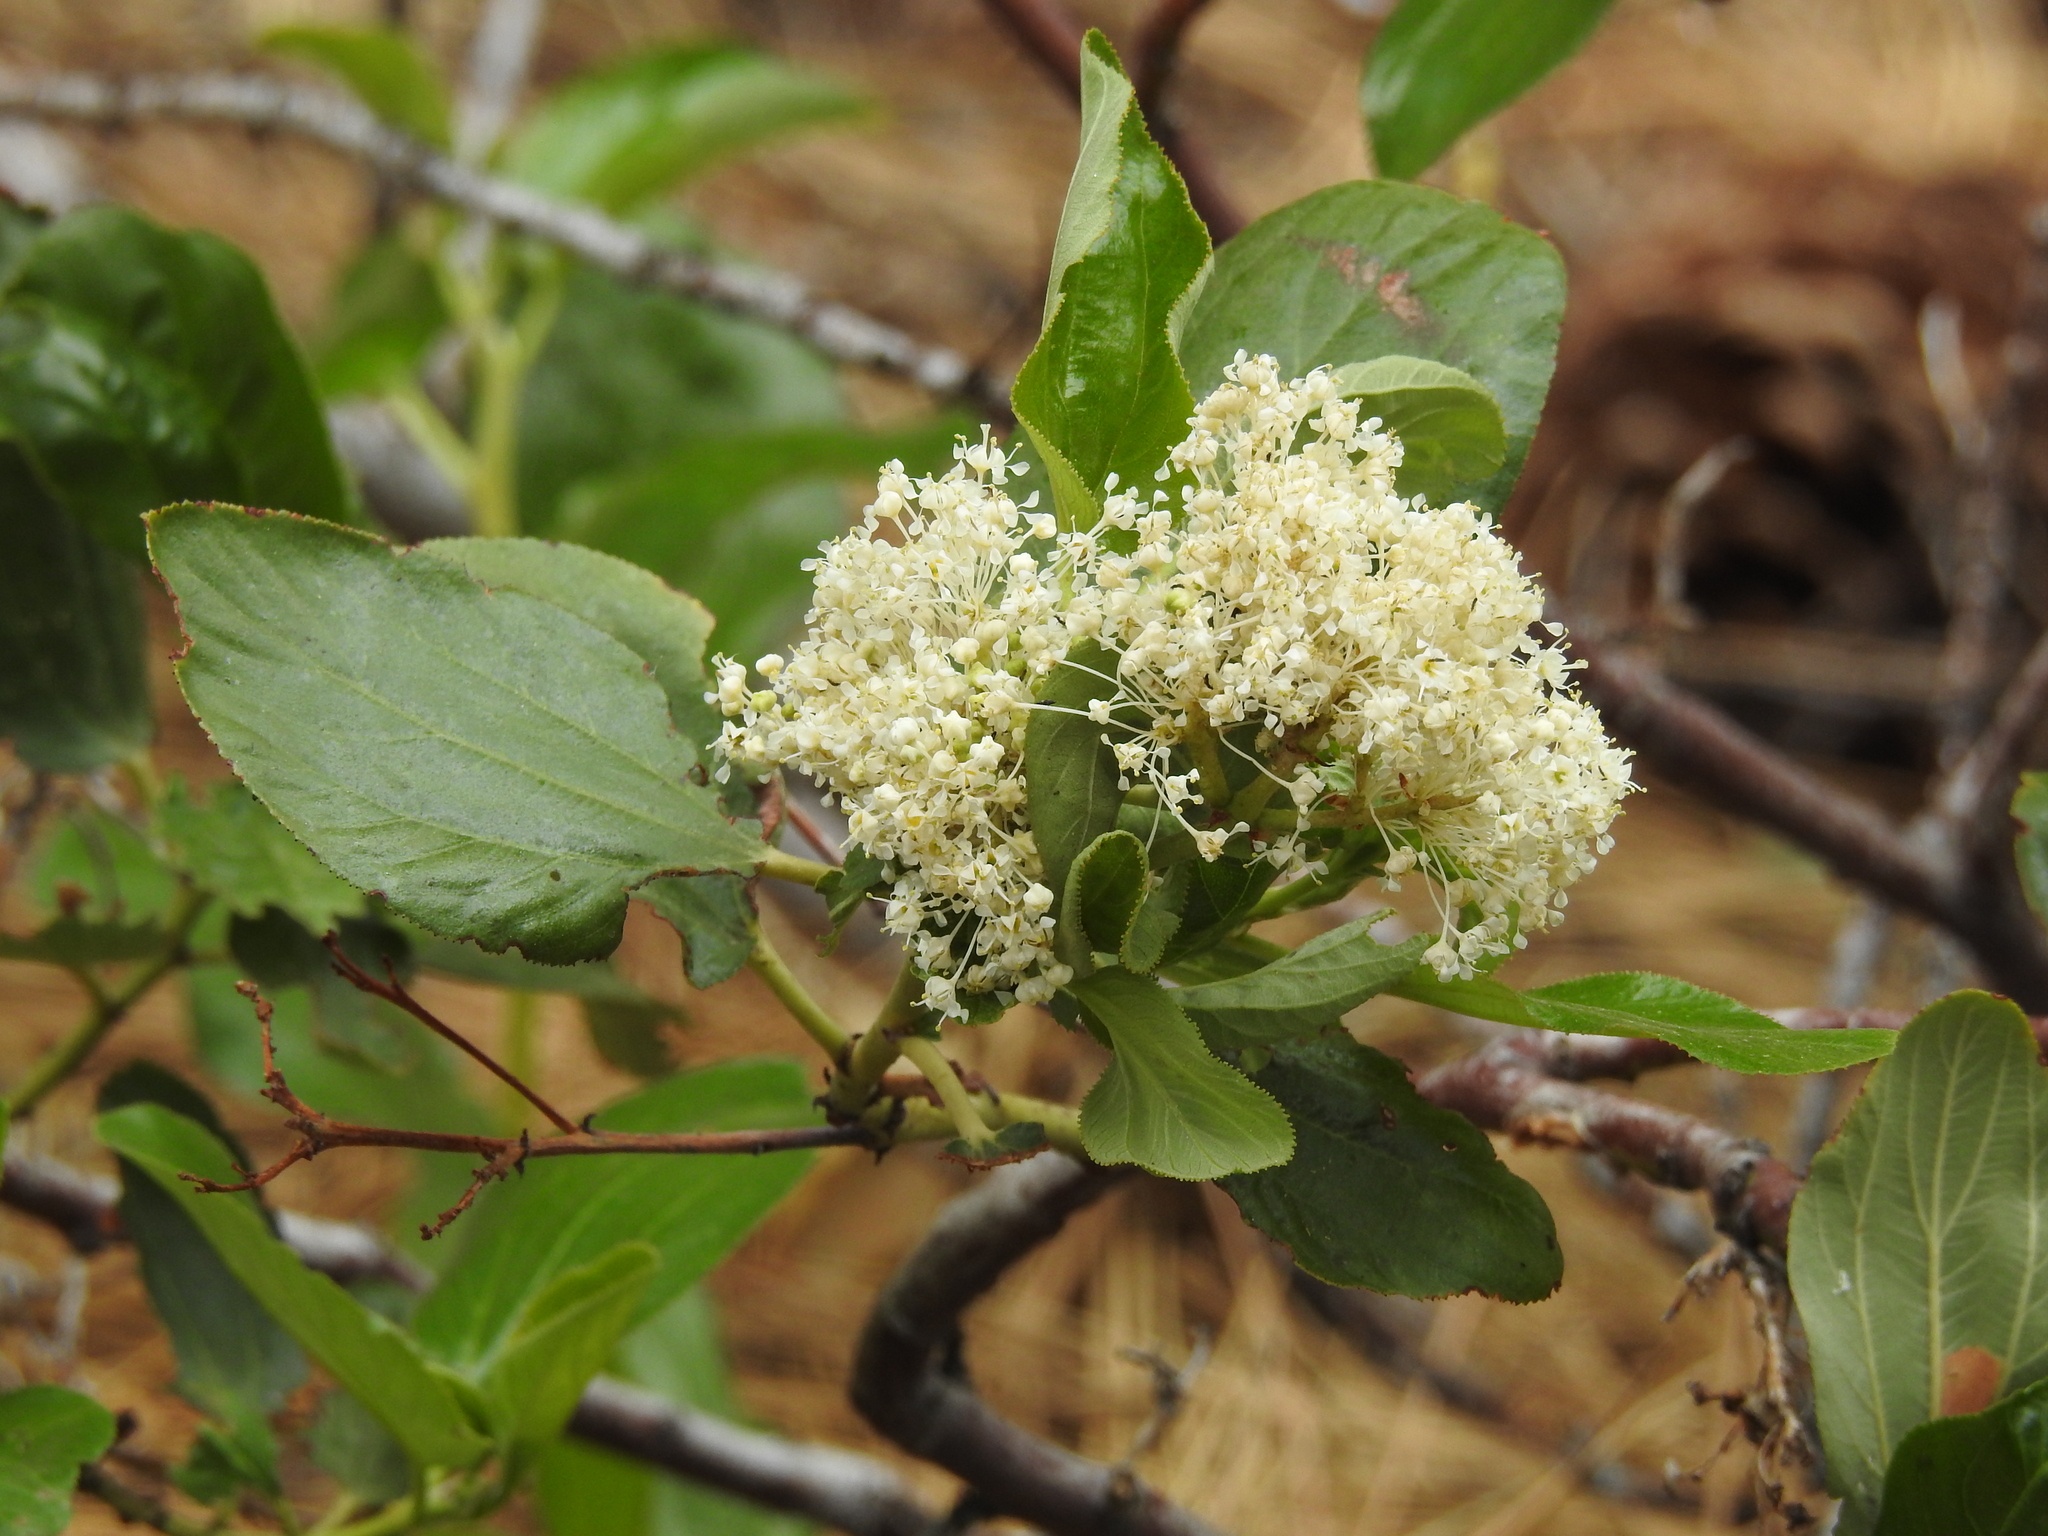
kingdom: Plantae
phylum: Tracheophyta
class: Magnoliopsida
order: Rosales
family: Rhamnaceae
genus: Ceanothus
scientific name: Ceanothus velutinus
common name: Snowbrush
